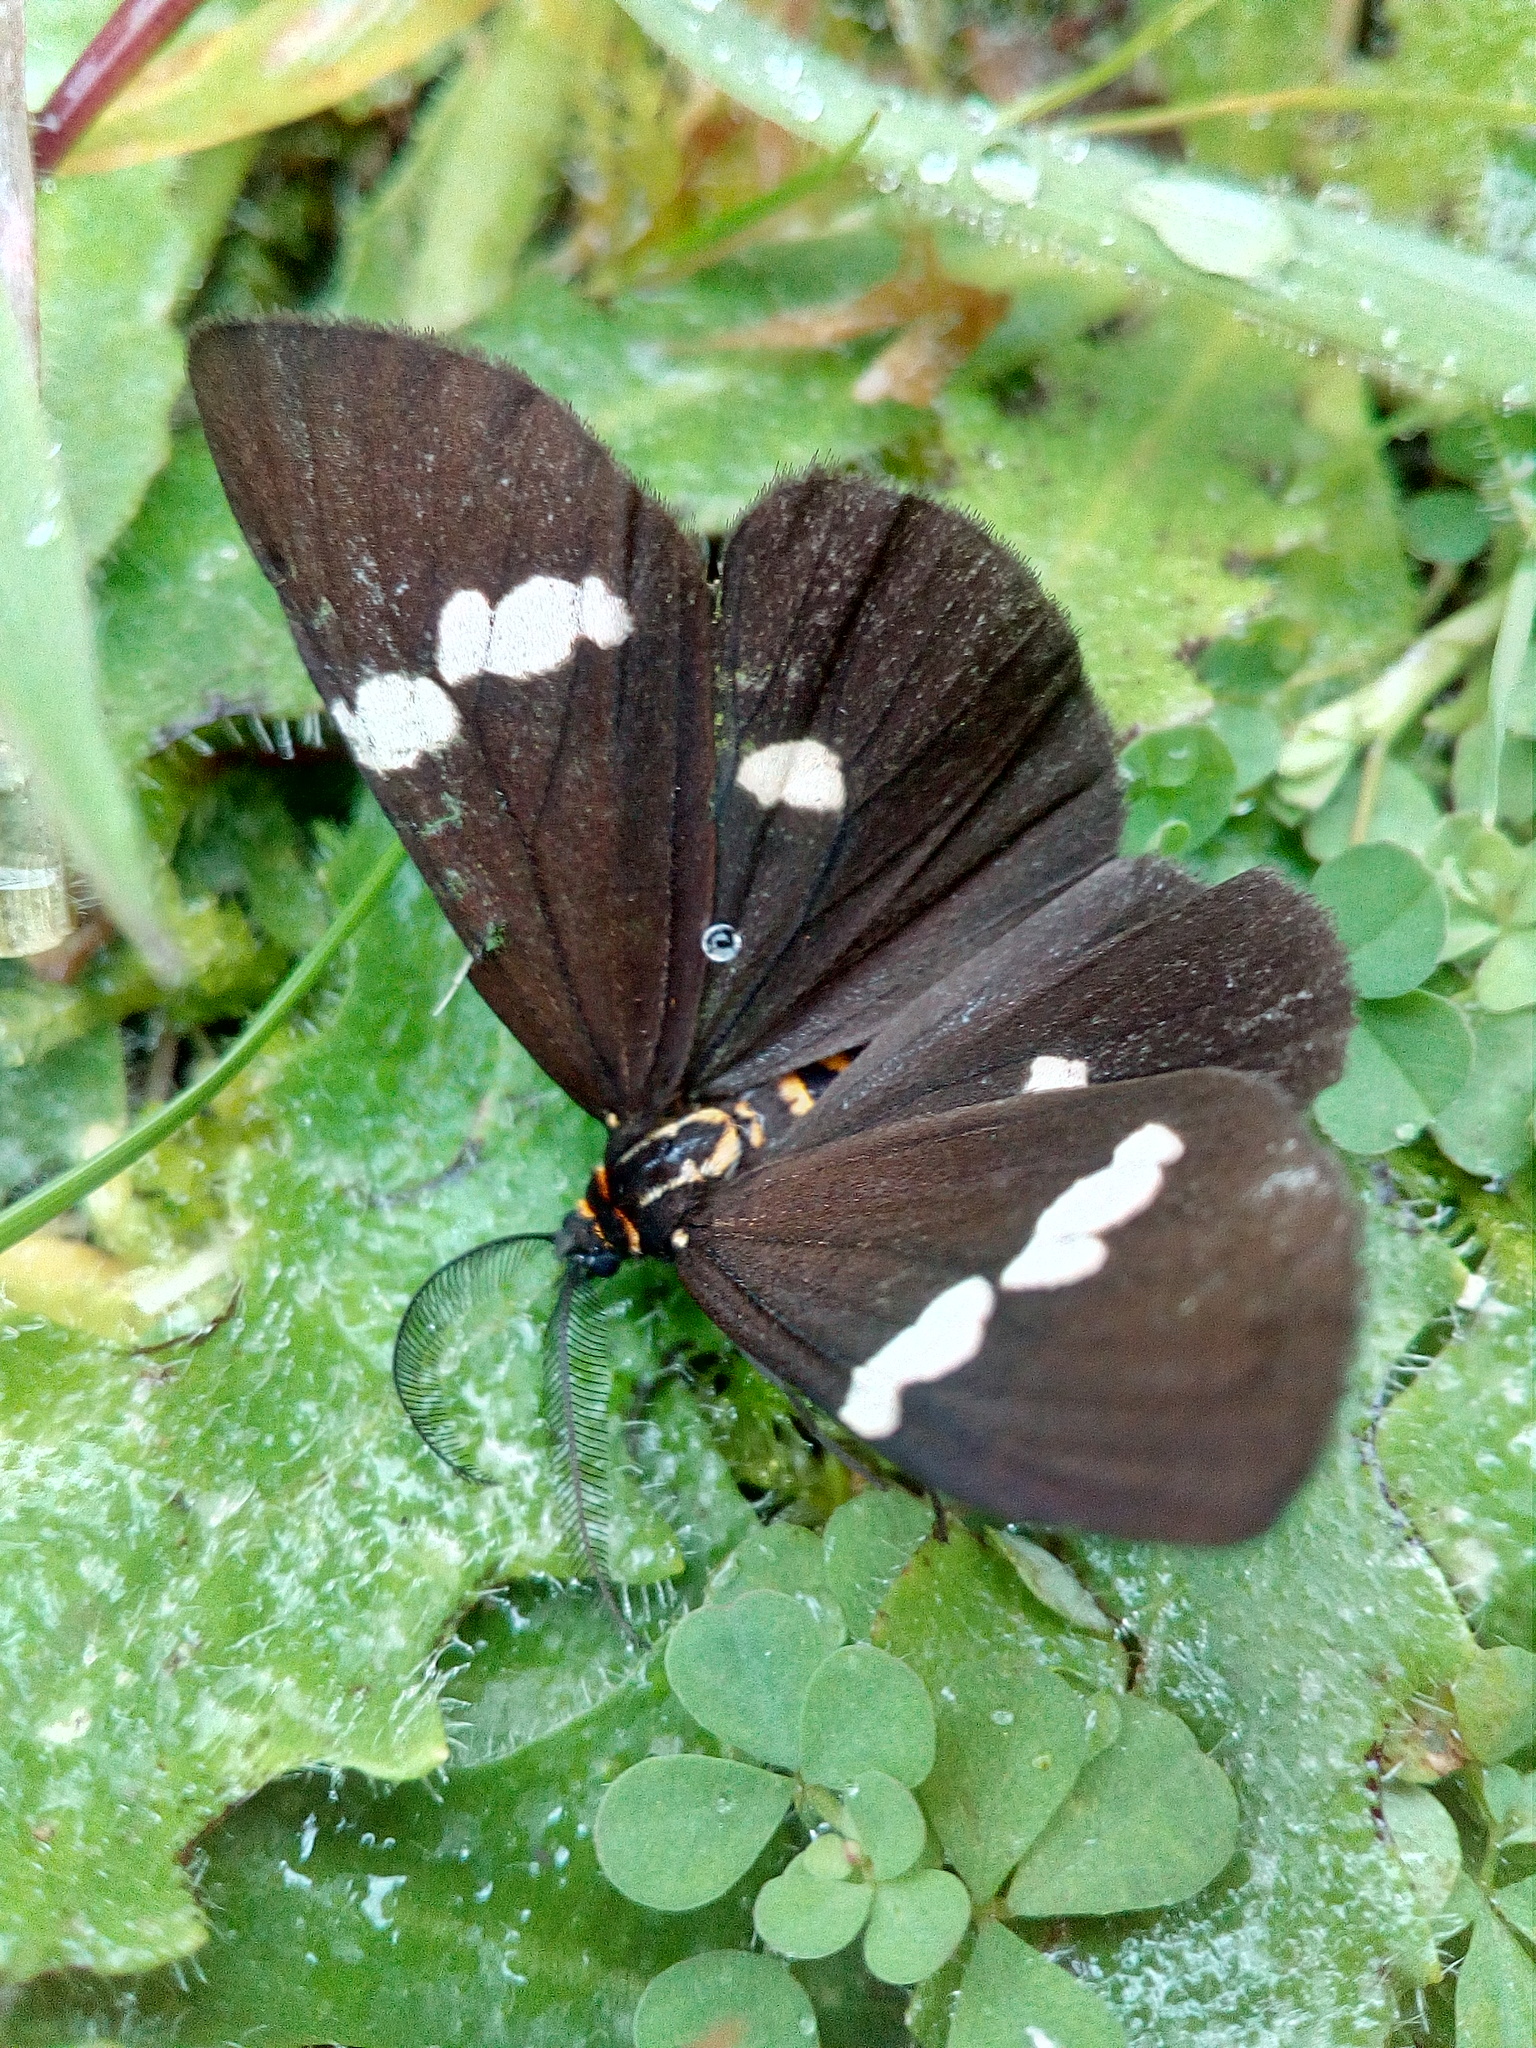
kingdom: Animalia
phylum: Arthropoda
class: Insecta
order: Lepidoptera
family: Erebidae
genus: Nyctemera
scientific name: Nyctemera annulatum
